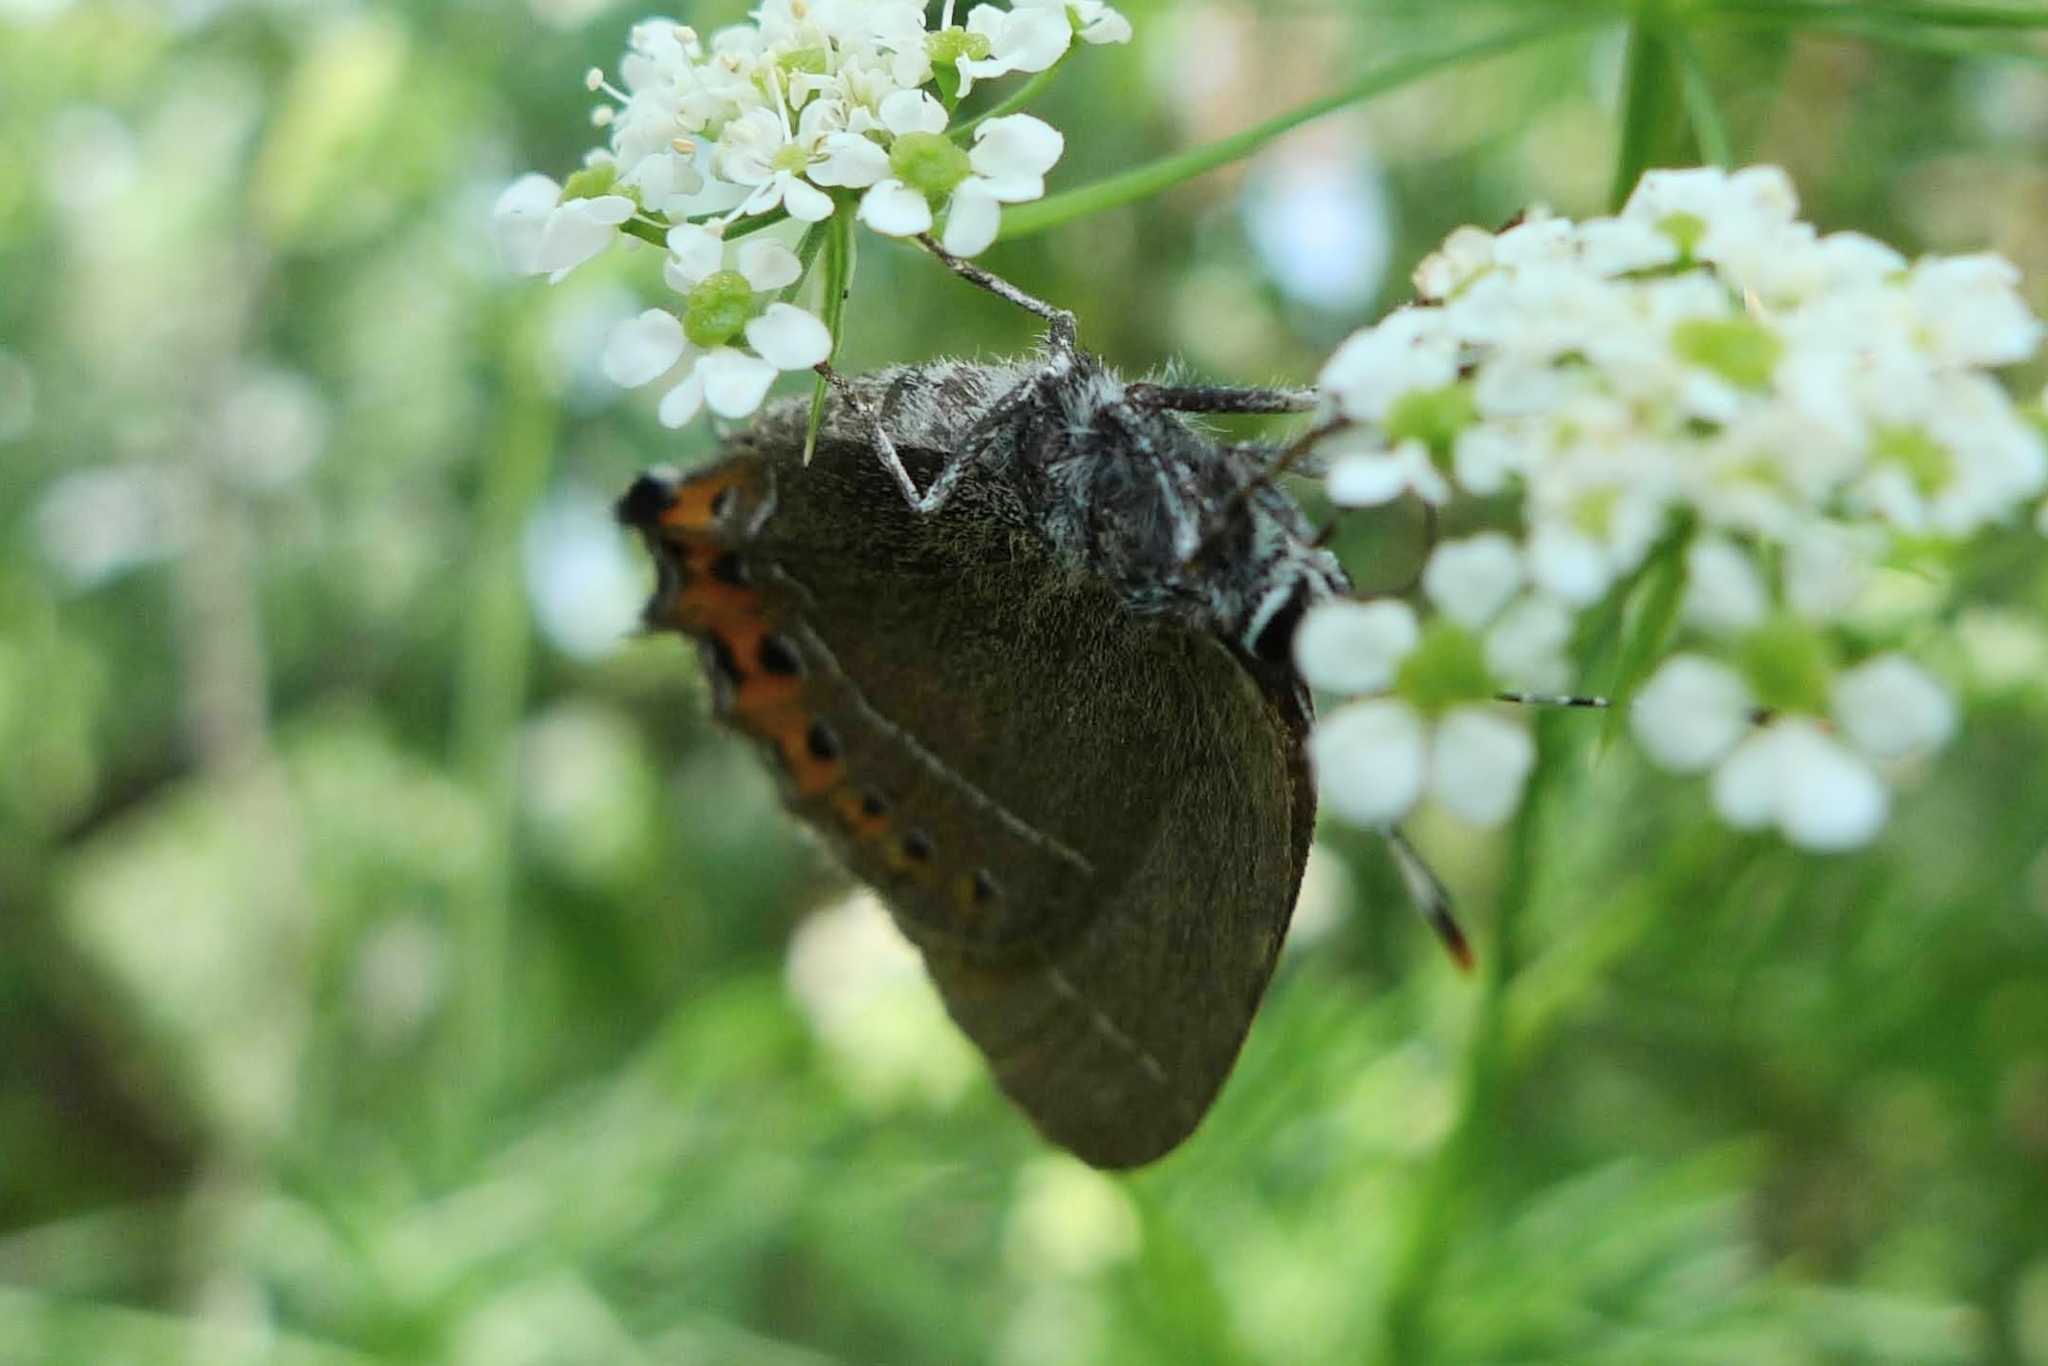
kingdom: Animalia
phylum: Arthropoda
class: Insecta
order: Lepidoptera
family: Lycaenidae
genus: Fixsenia
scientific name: Fixsenia pruni
